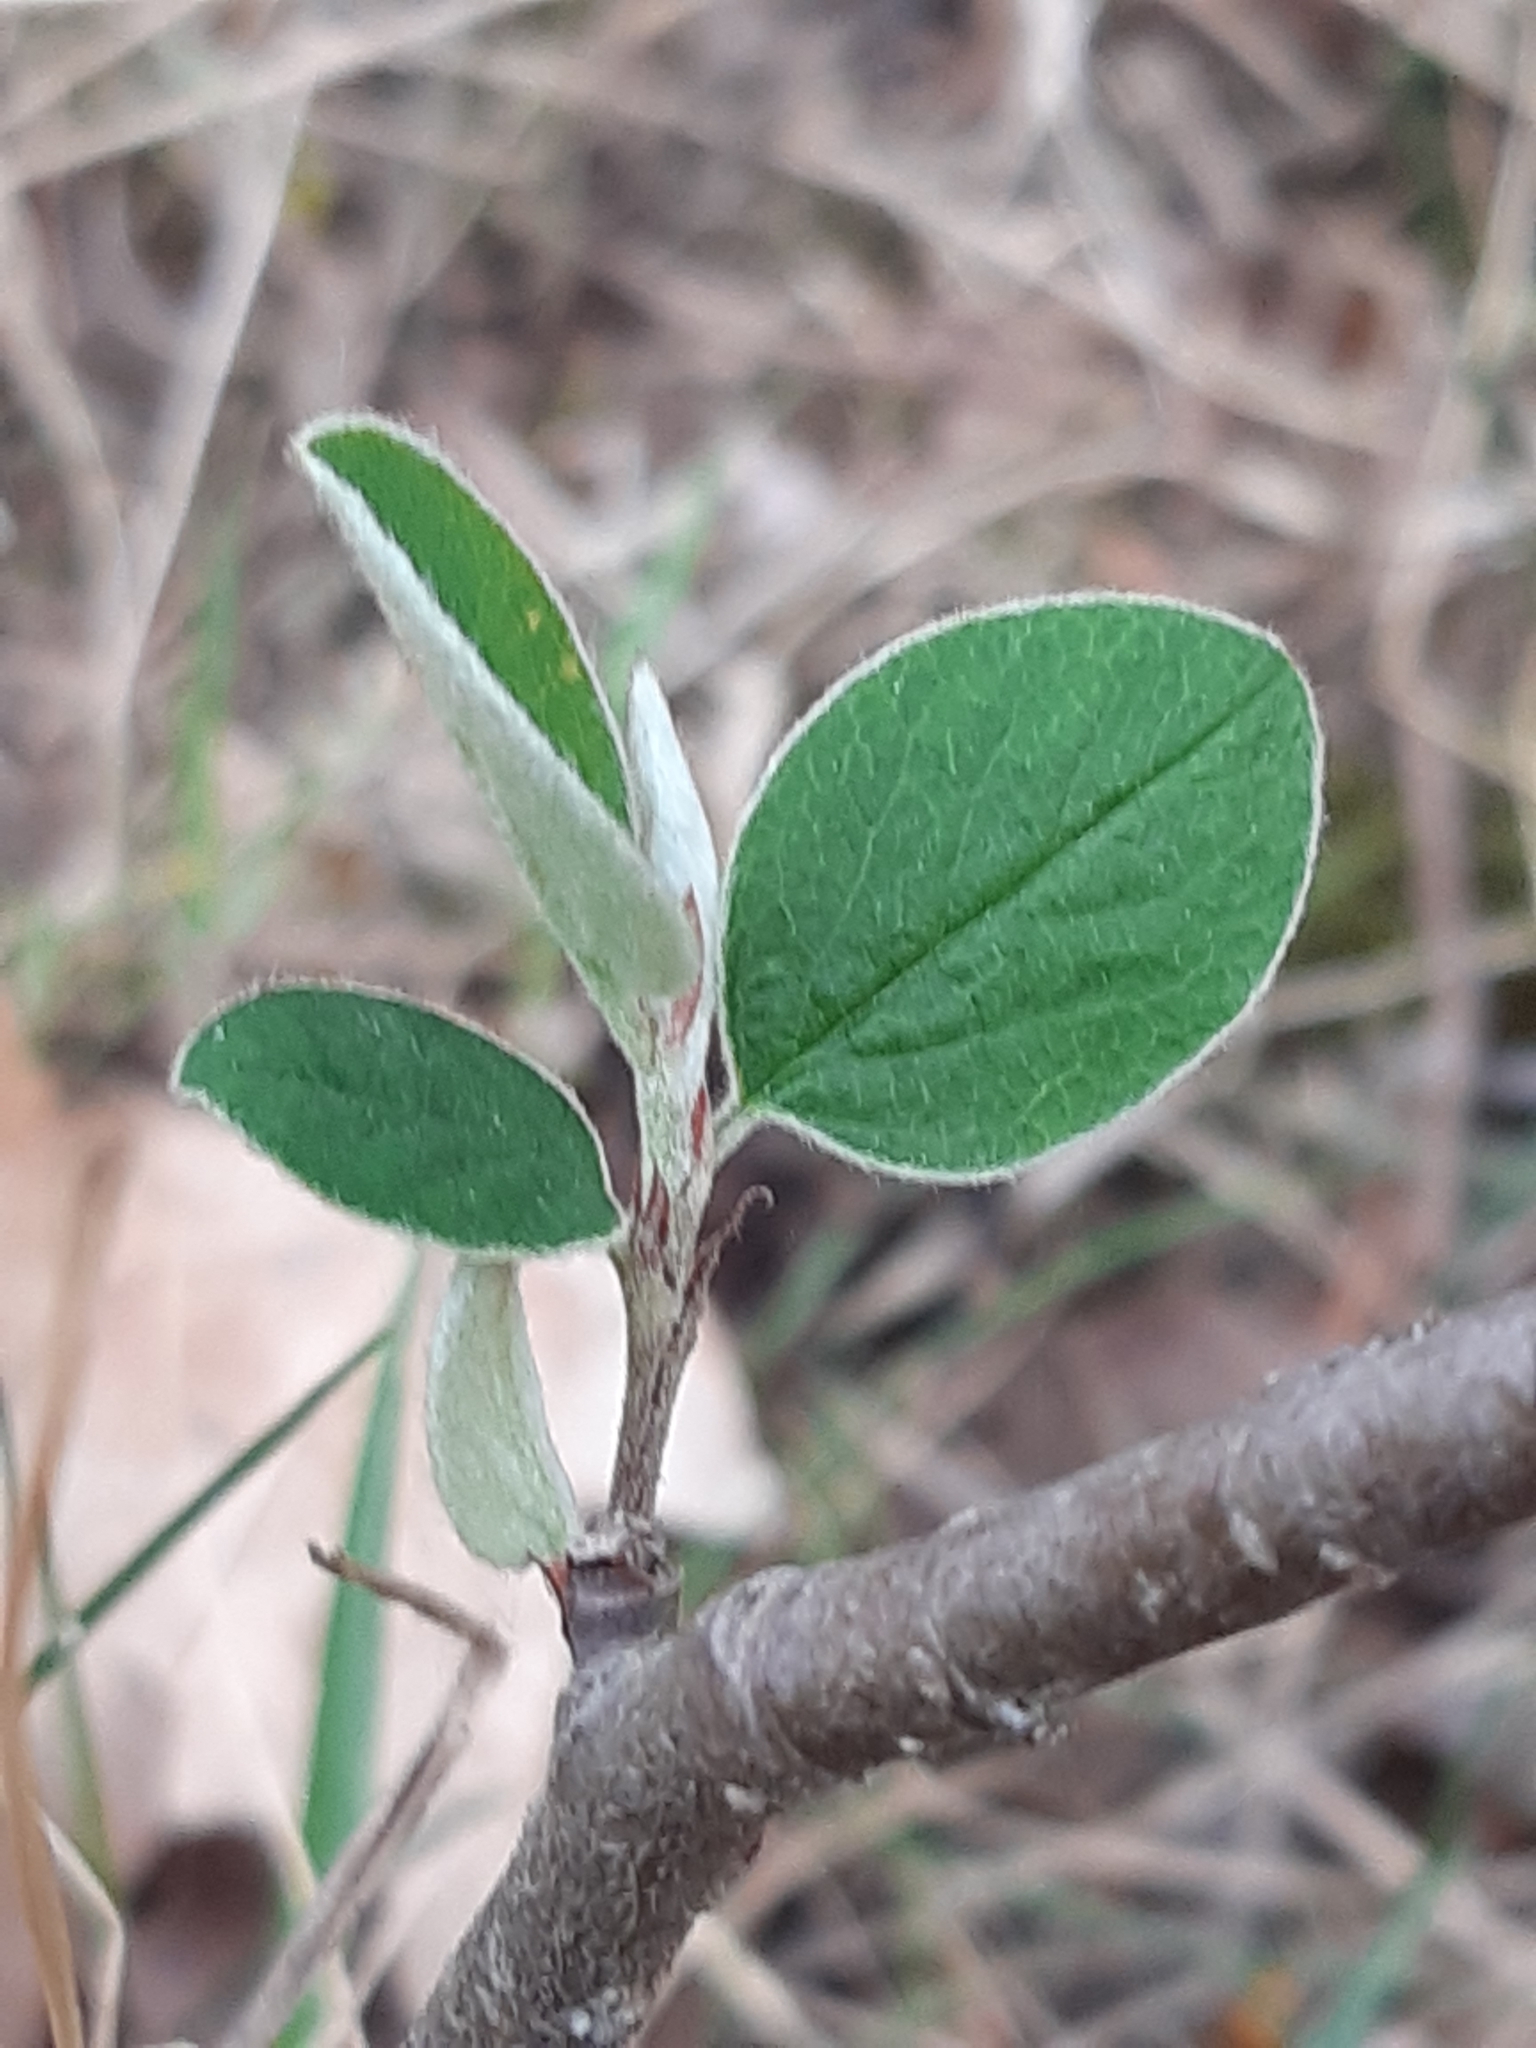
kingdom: Plantae
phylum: Tracheophyta
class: Magnoliopsida
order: Rosales
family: Rosaceae
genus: Cotoneaster
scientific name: Cotoneaster integerrimus
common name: Wild cotoneaster
